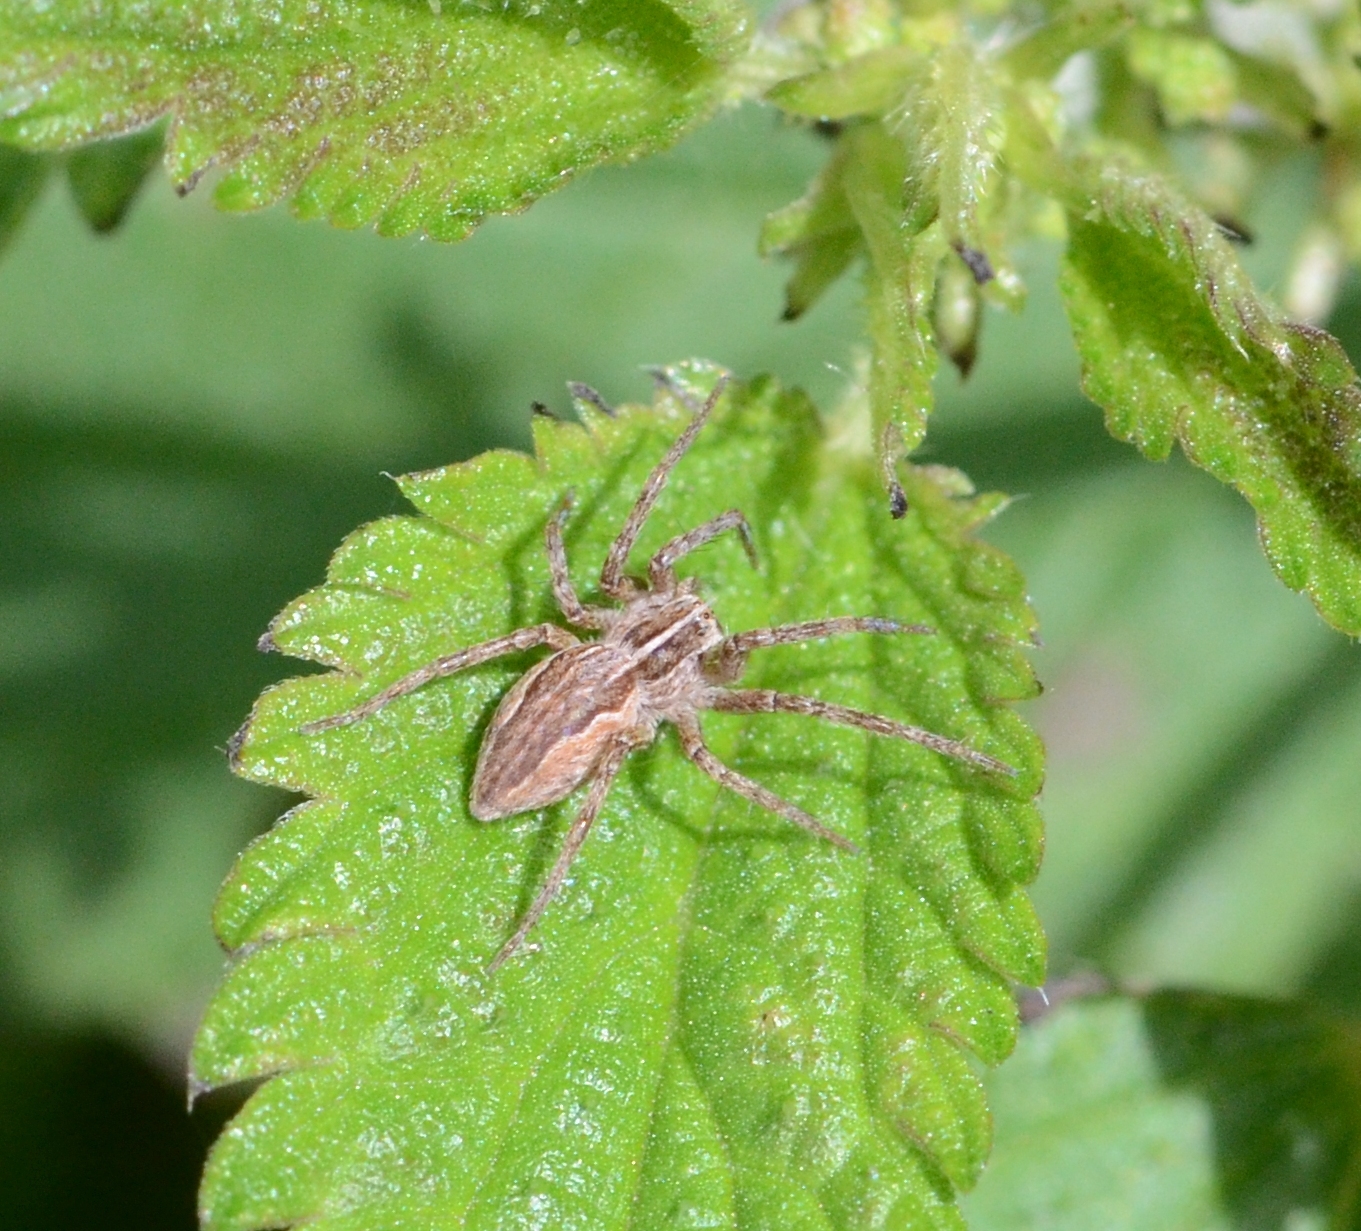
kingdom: Animalia
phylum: Arthropoda
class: Arachnida
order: Araneae
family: Pisauridae
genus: Pisaura
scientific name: Pisaura mirabilis
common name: Tent spider
